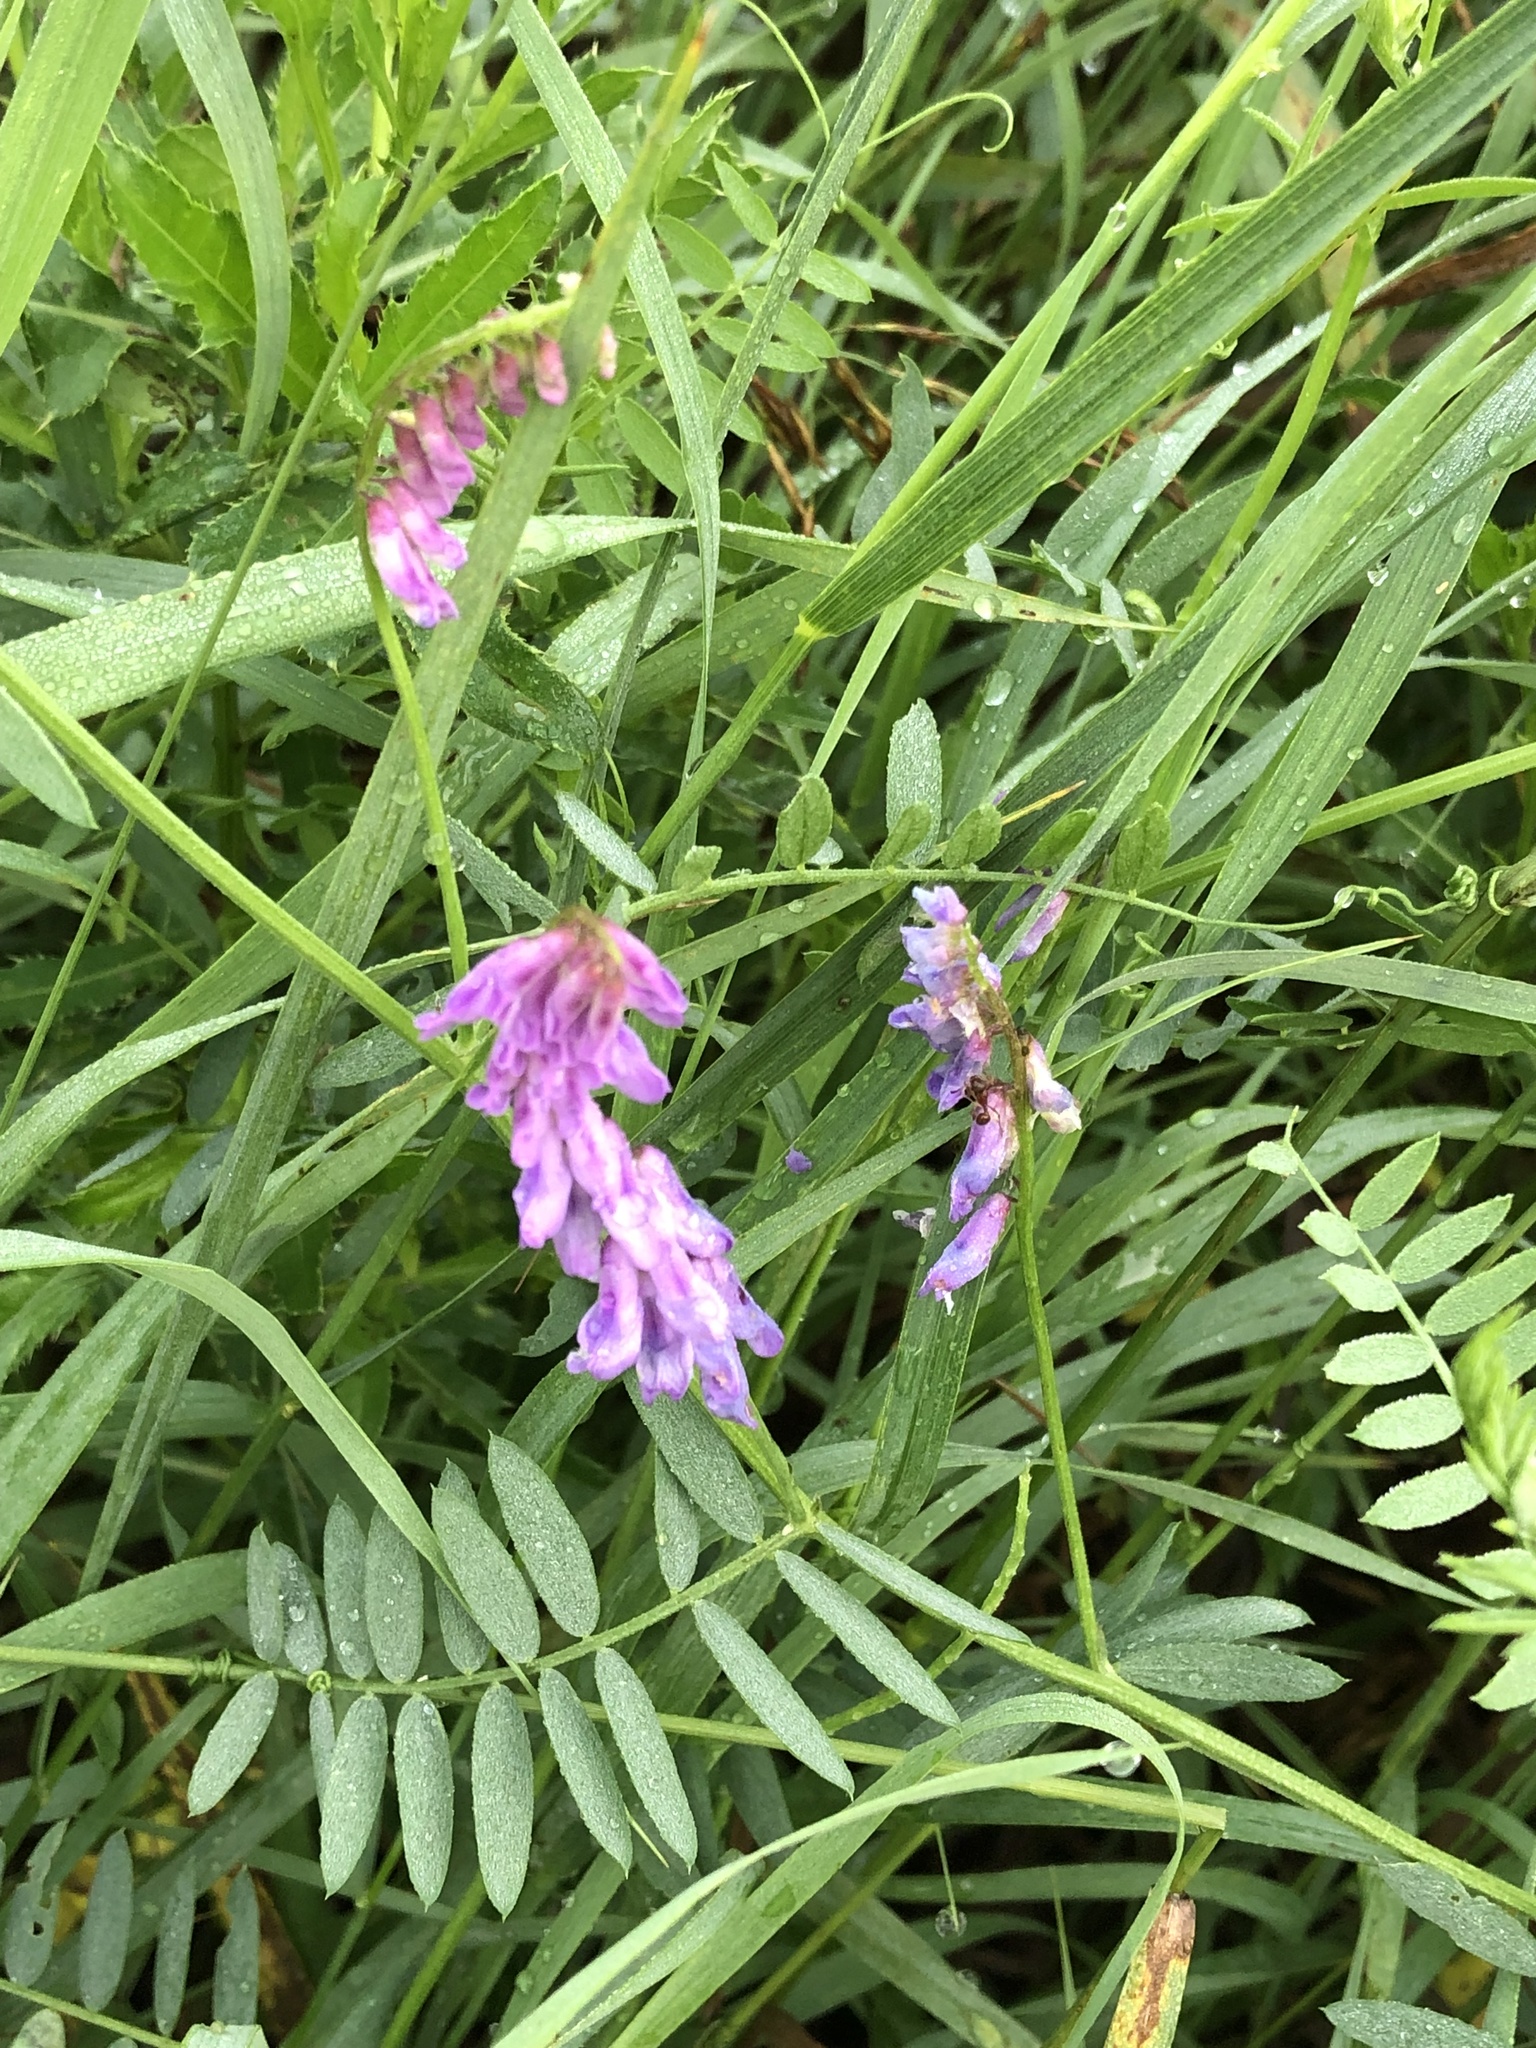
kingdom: Plantae
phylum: Tracheophyta
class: Magnoliopsida
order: Fabales
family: Fabaceae
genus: Vicia
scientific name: Vicia cracca
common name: Bird vetch
